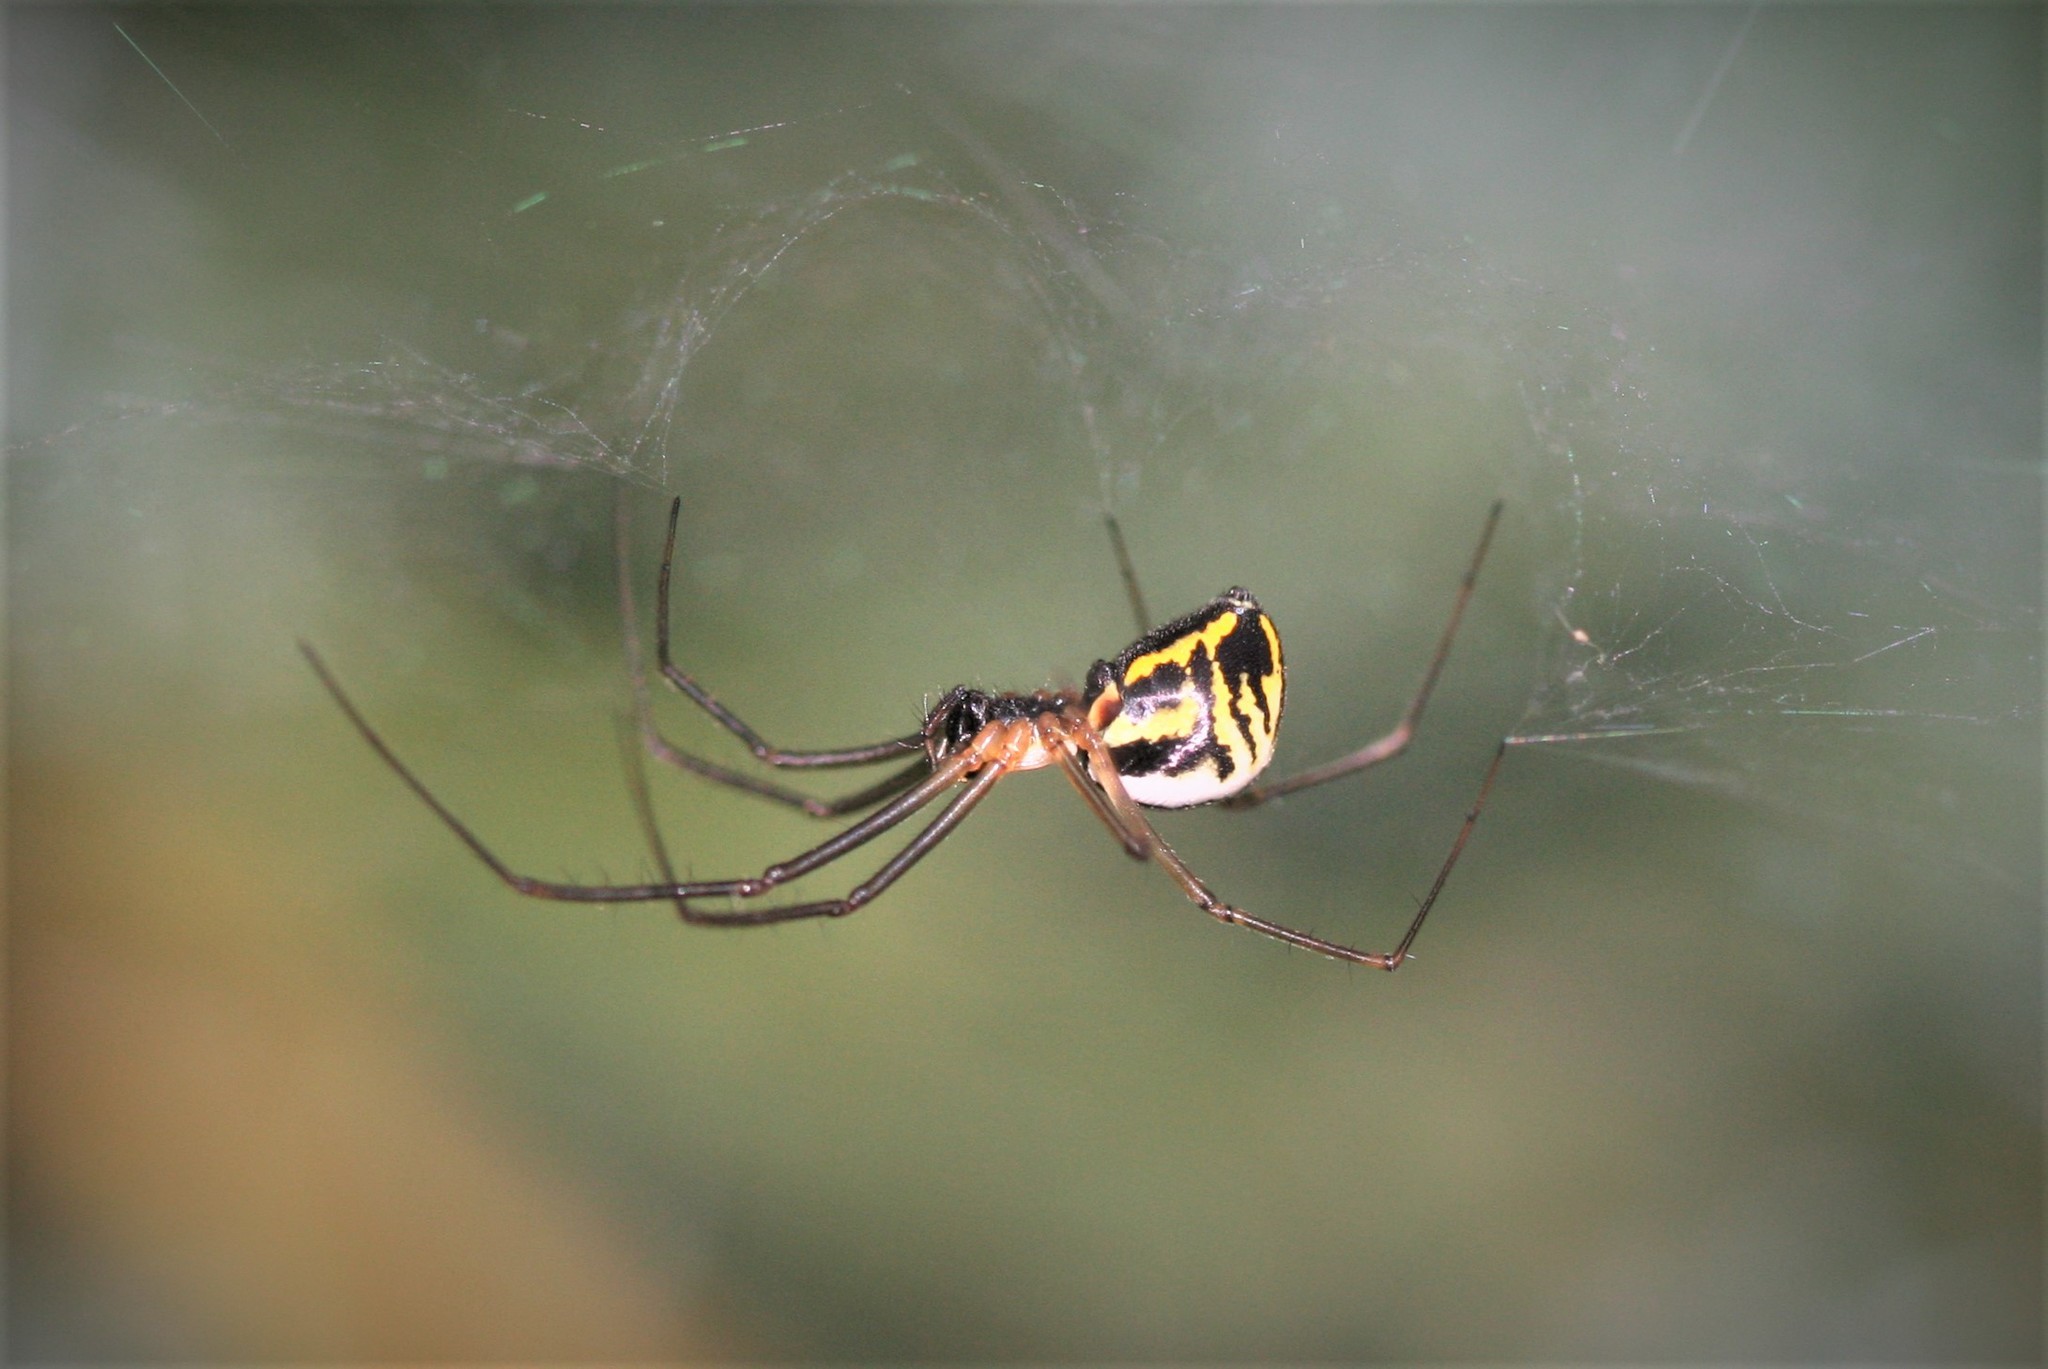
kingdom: Animalia
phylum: Arthropoda
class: Arachnida
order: Araneae
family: Linyphiidae
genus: Neriene
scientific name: Neriene radiata
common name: Filmy dome spider
